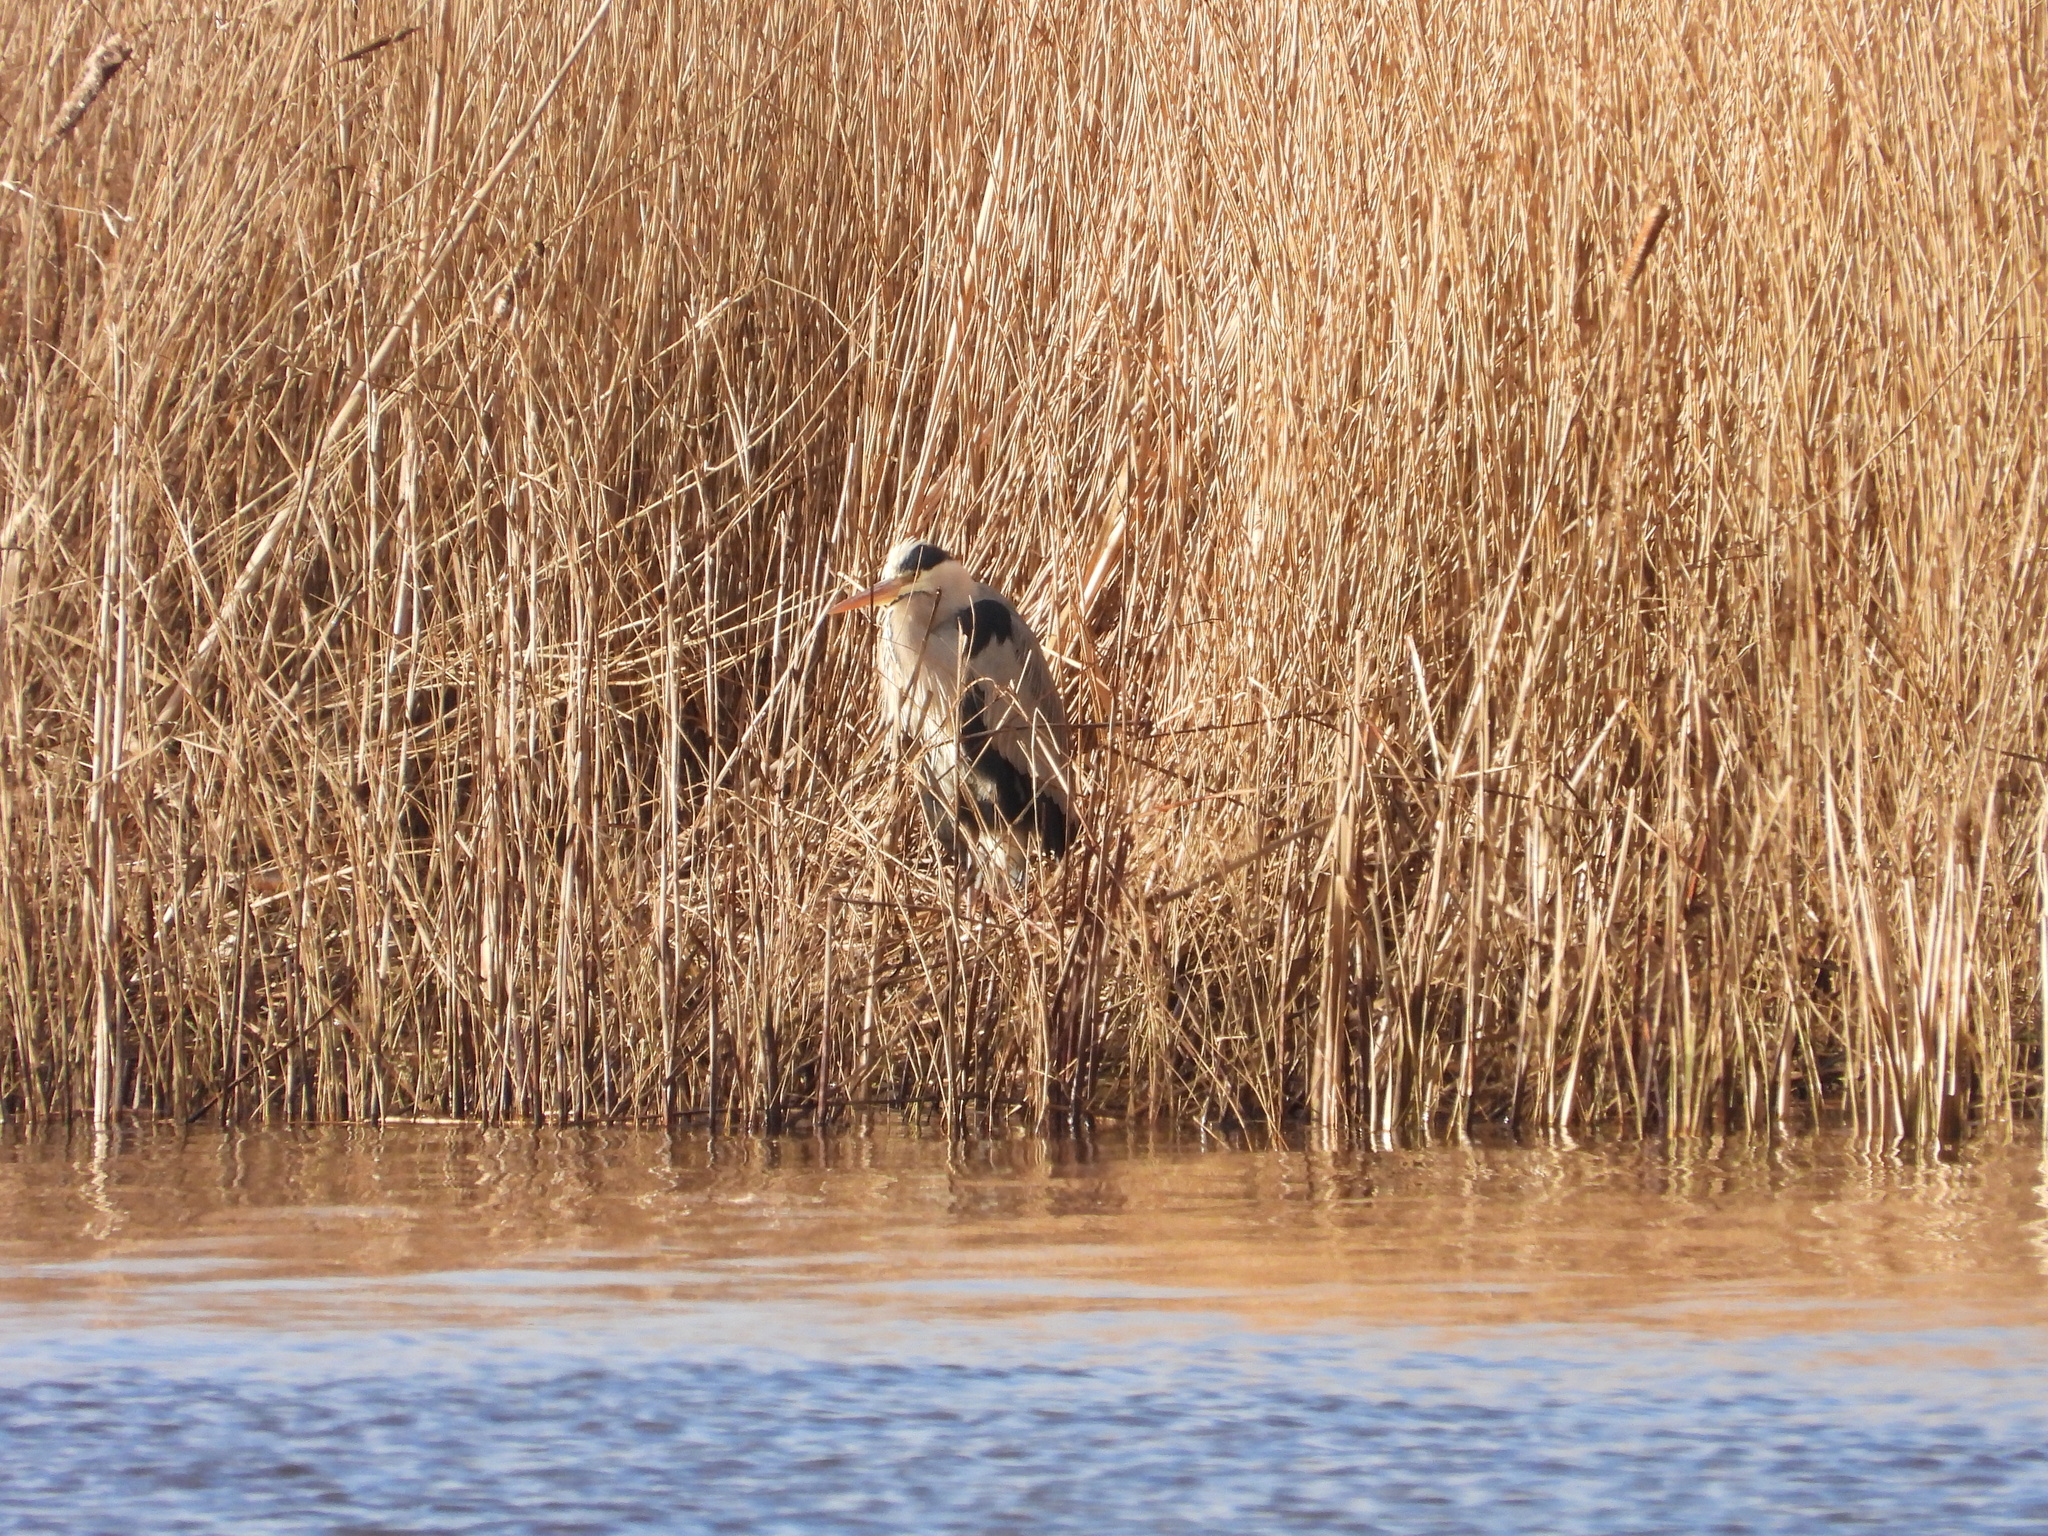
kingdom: Animalia
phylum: Chordata
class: Aves
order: Pelecaniformes
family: Ardeidae
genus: Ardea
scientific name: Ardea cinerea
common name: Grey heron
